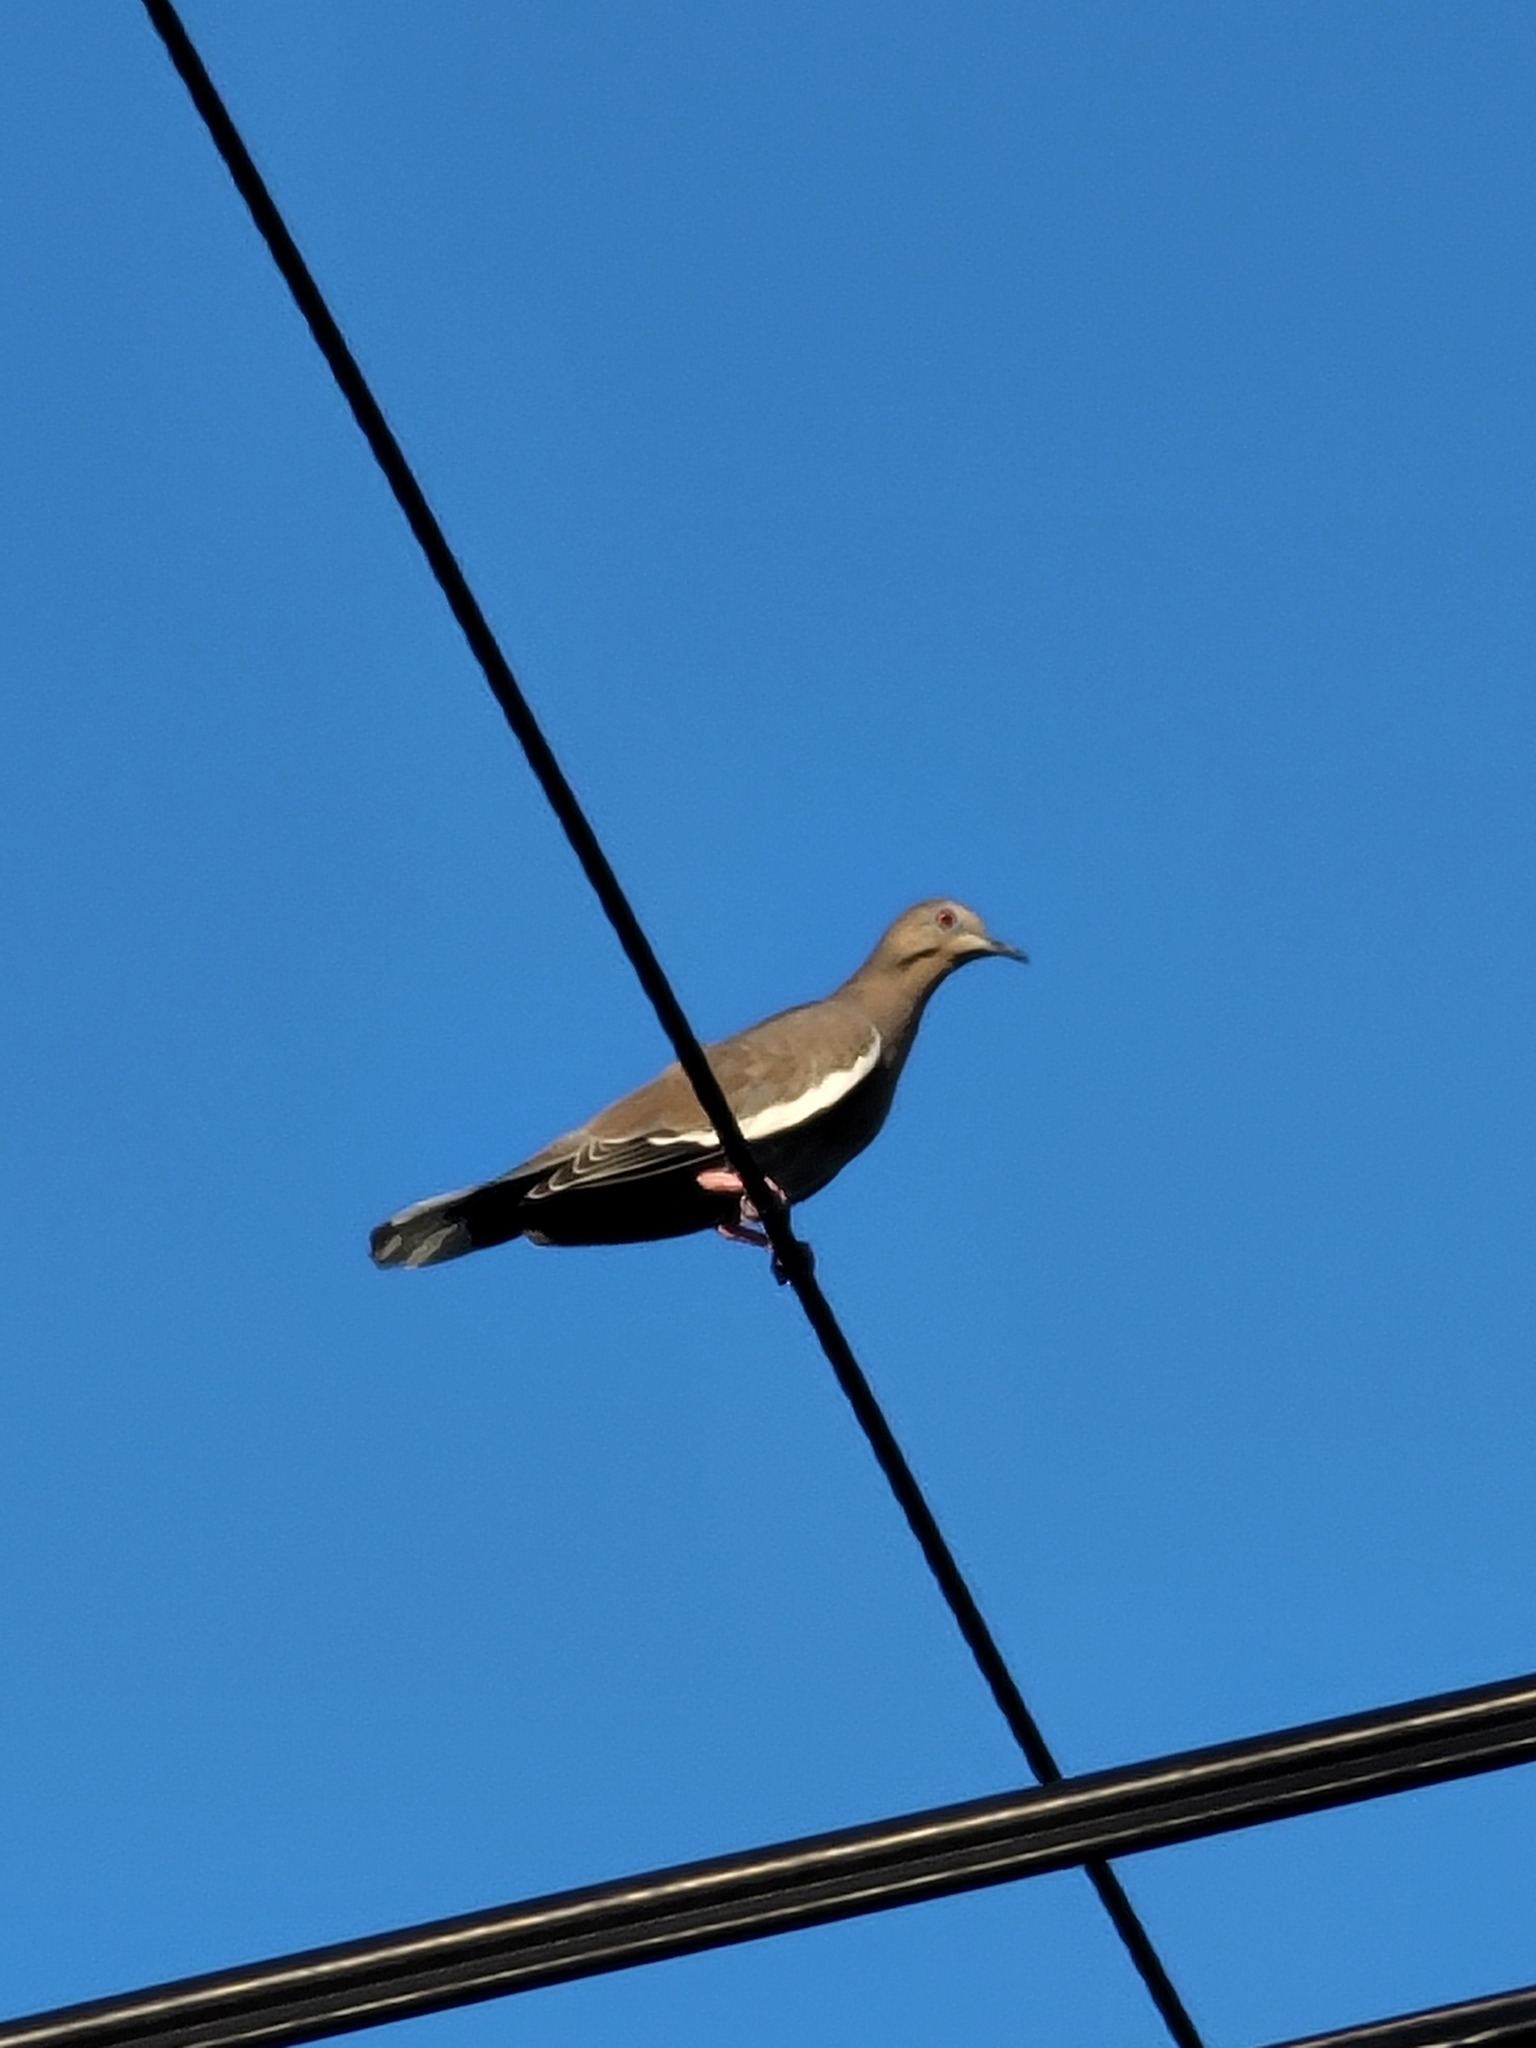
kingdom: Animalia
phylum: Chordata
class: Aves
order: Columbiformes
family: Columbidae
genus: Zenaida
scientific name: Zenaida asiatica
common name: White-winged dove
